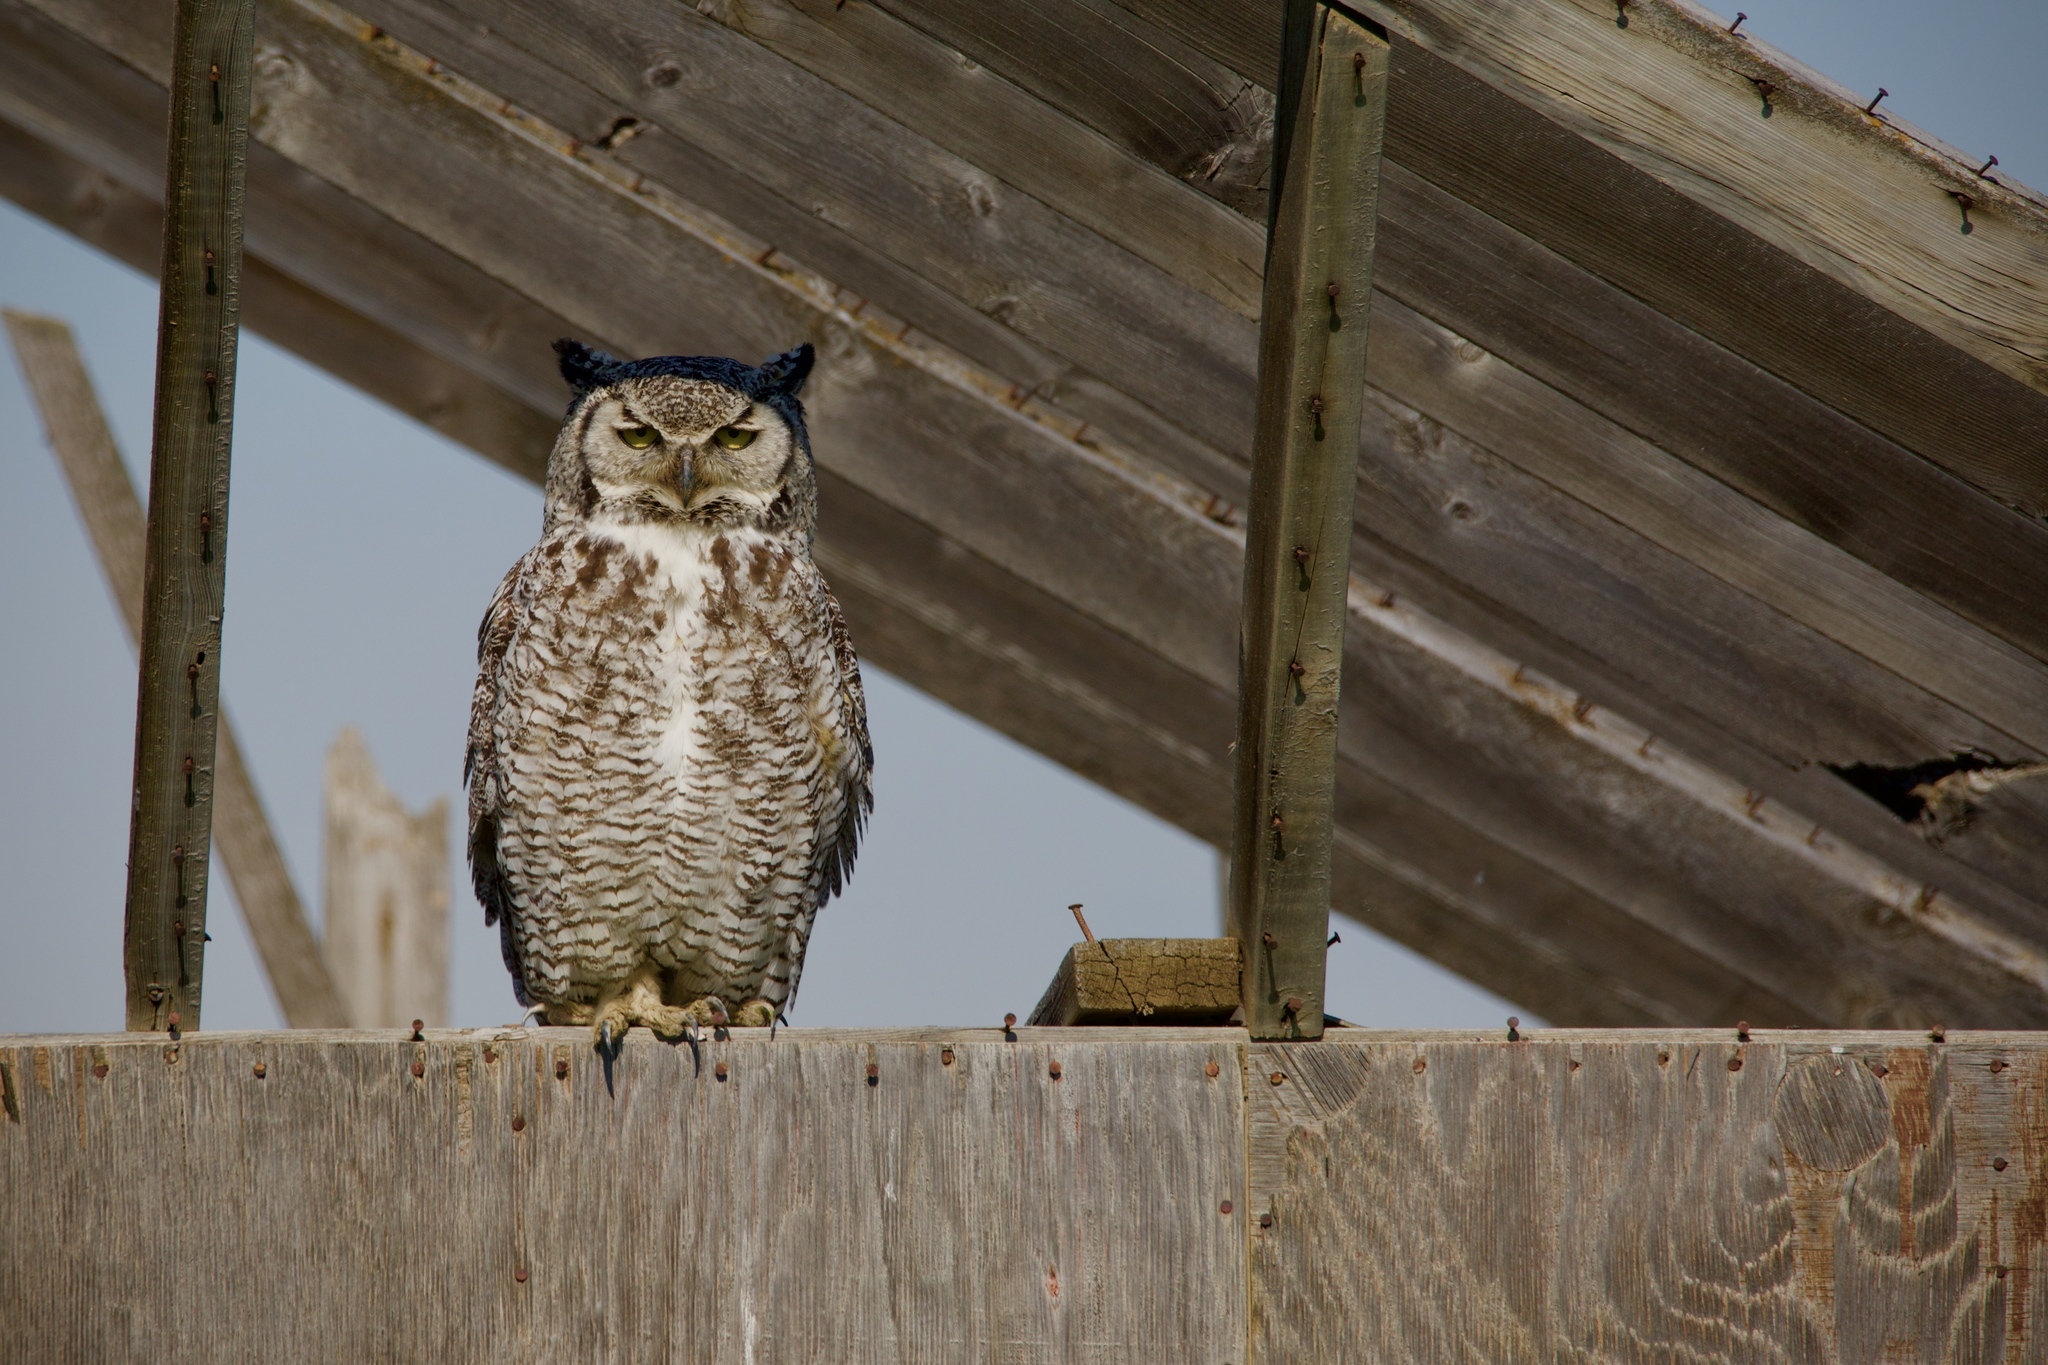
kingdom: Animalia
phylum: Chordata
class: Aves
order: Strigiformes
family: Strigidae
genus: Bubo
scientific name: Bubo virginianus
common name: Great horned owl
